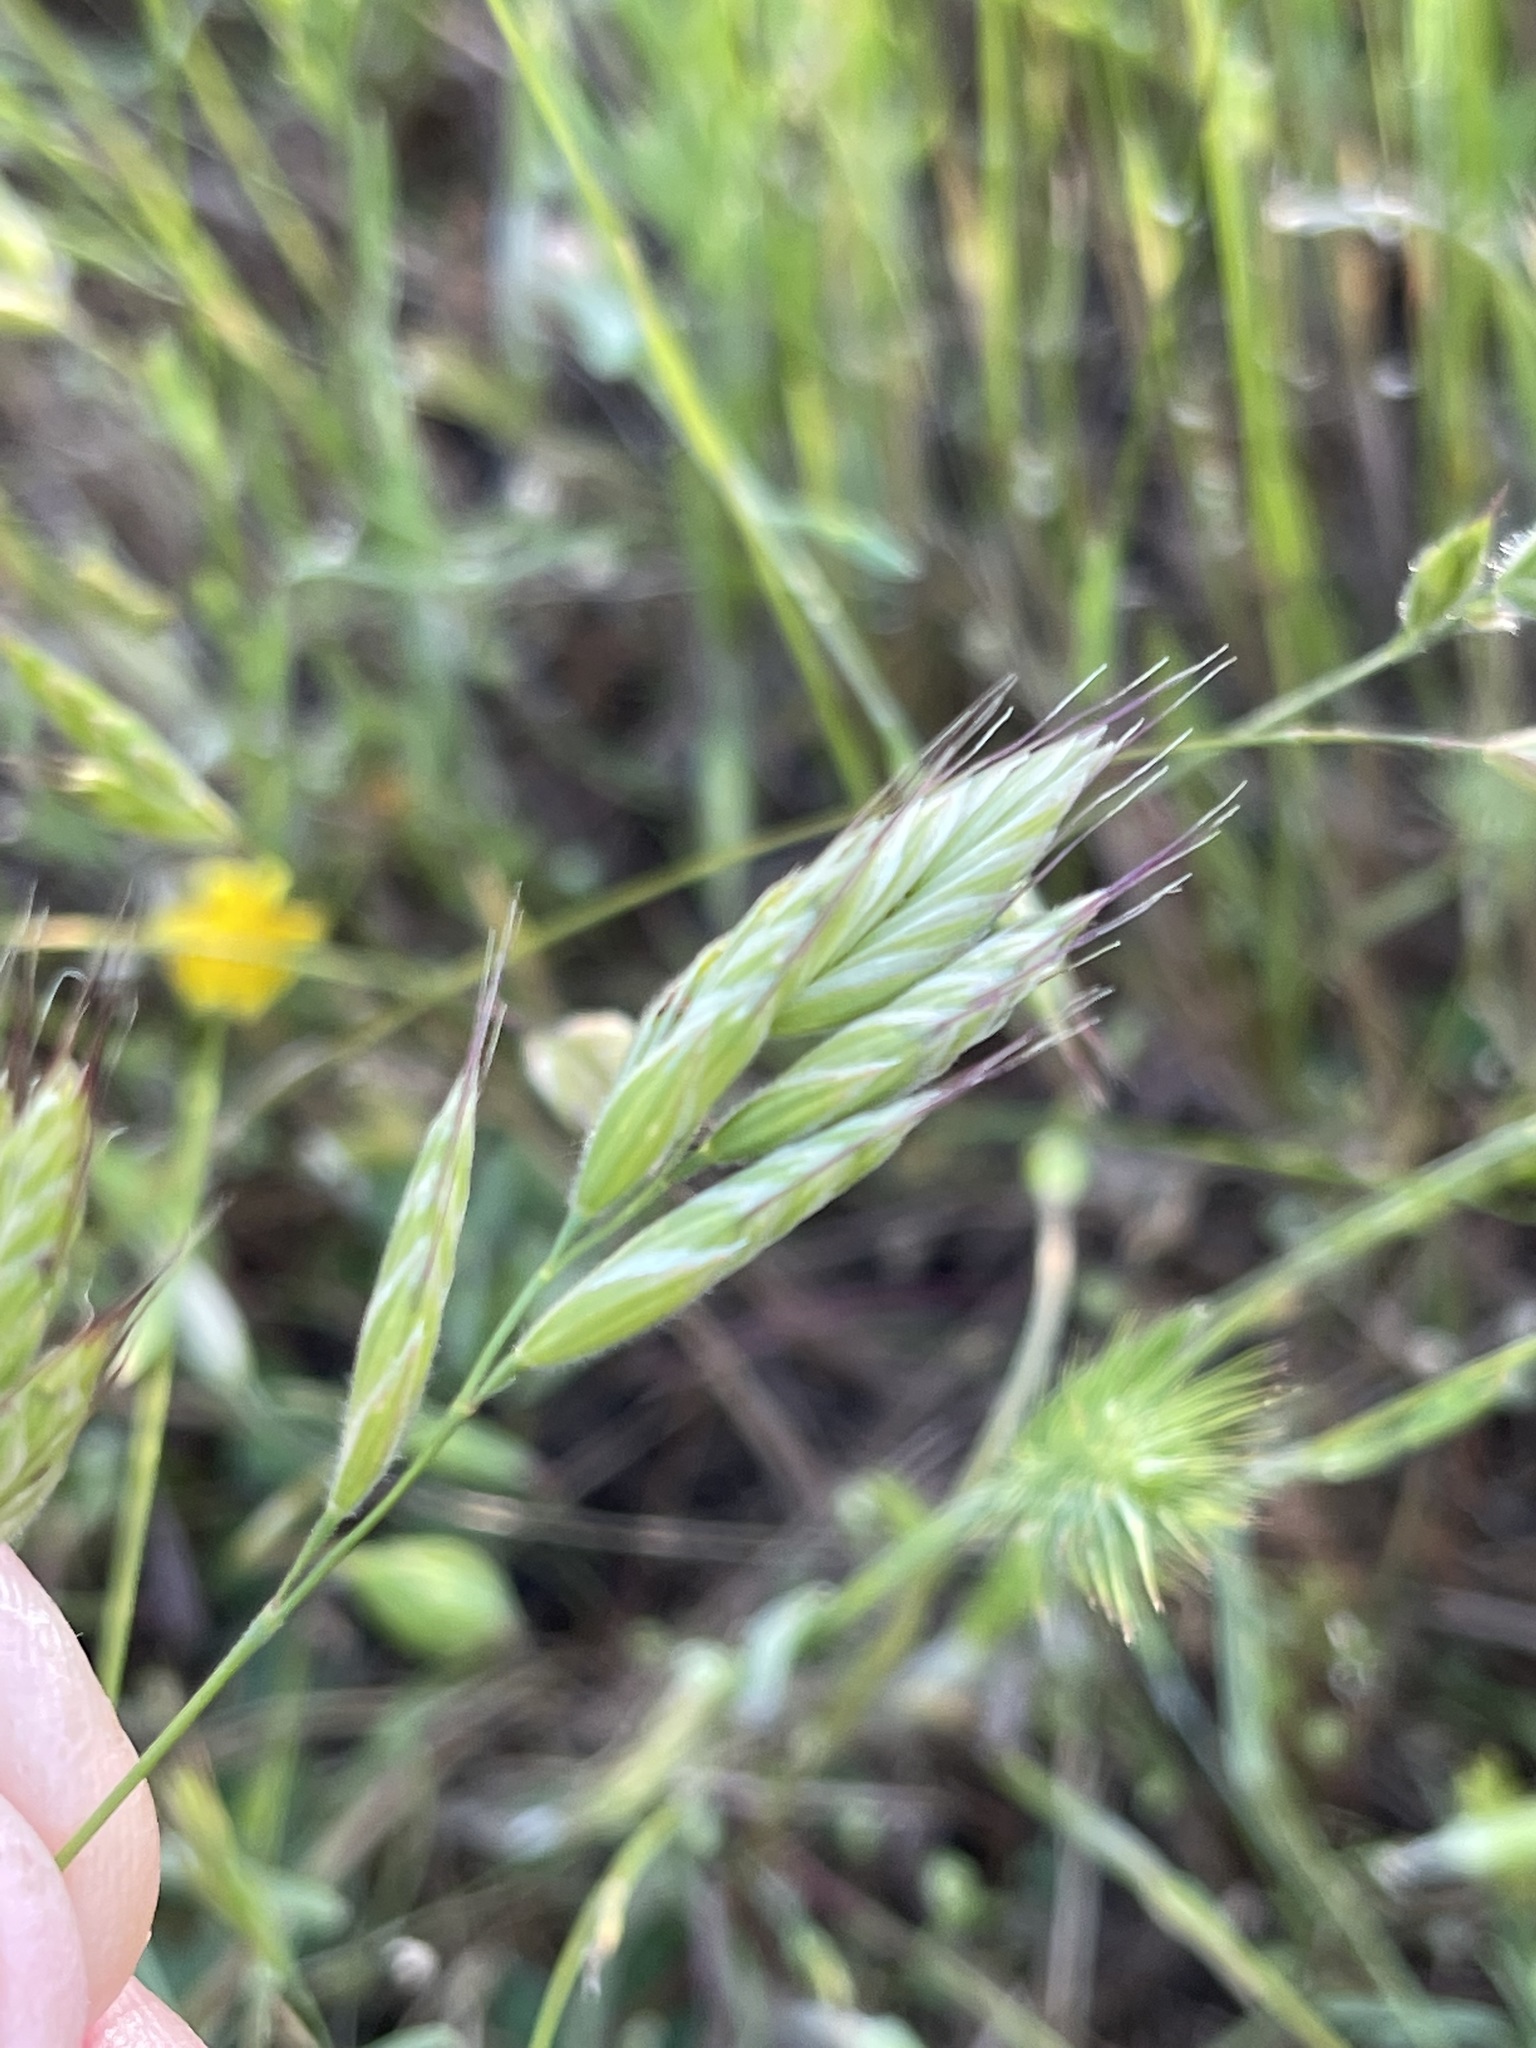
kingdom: Plantae
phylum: Tracheophyta
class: Liliopsida
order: Poales
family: Poaceae
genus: Bromus
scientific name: Bromus hordeaceus
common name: Soft brome
